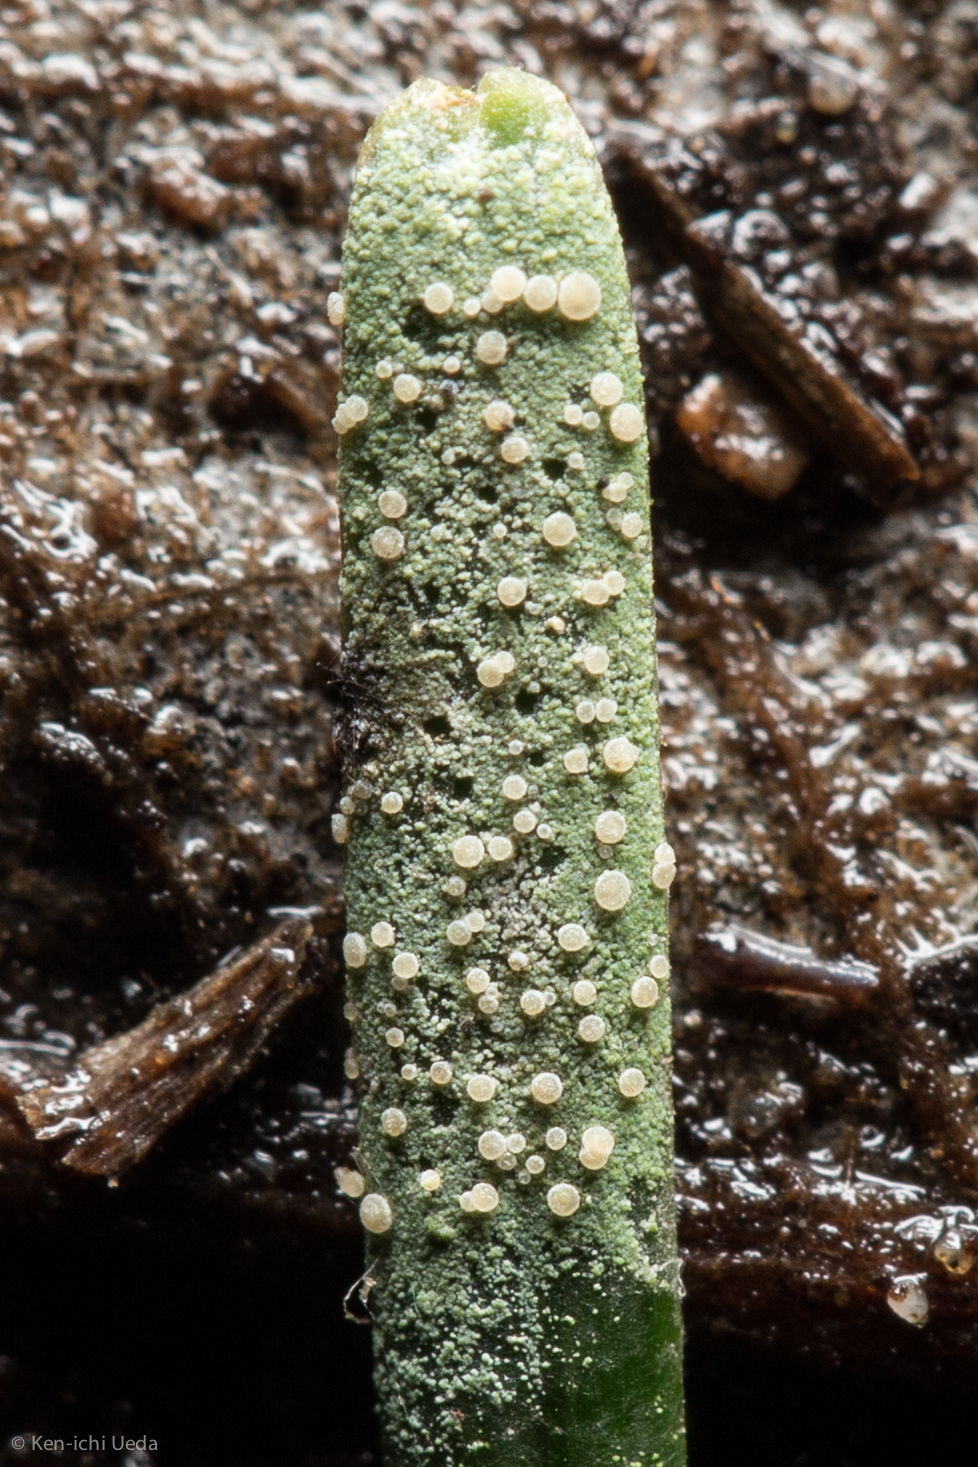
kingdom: Fungi
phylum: Ascomycota
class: Lecanoromycetes
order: Lecanorales
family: Byssolomataceae
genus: Fellhanera
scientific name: Fellhanera bouteillei
